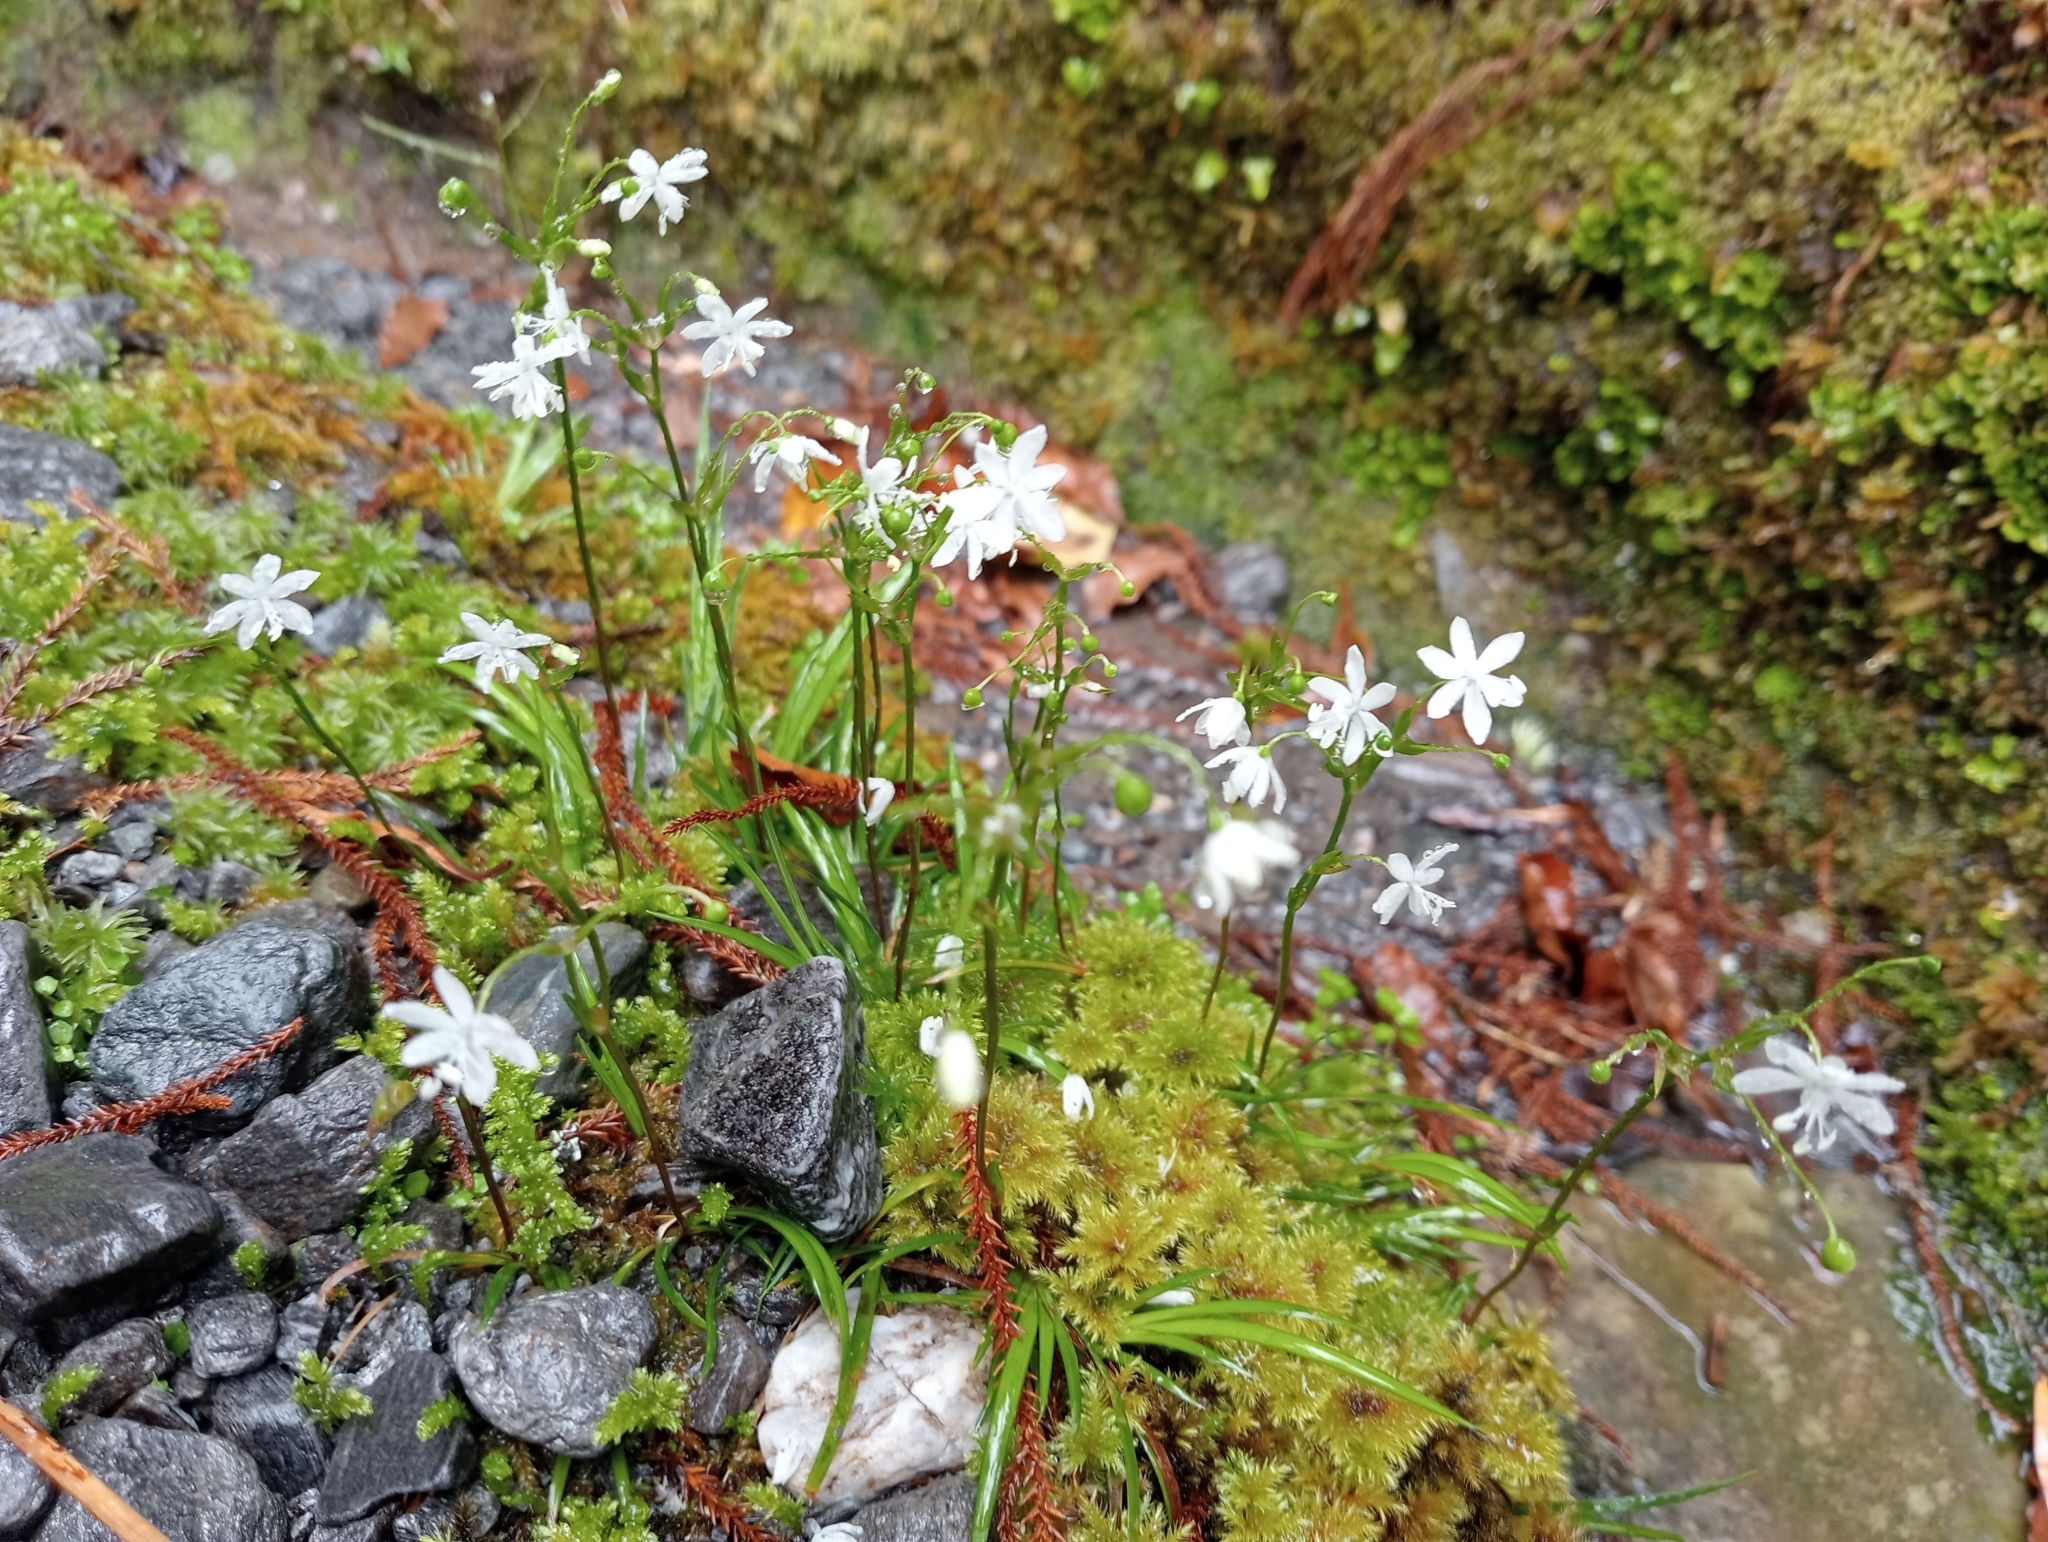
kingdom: Plantae
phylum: Tracheophyta
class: Liliopsida
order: Asparagales
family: Iridaceae
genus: Libertia
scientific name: Libertia micrantha
